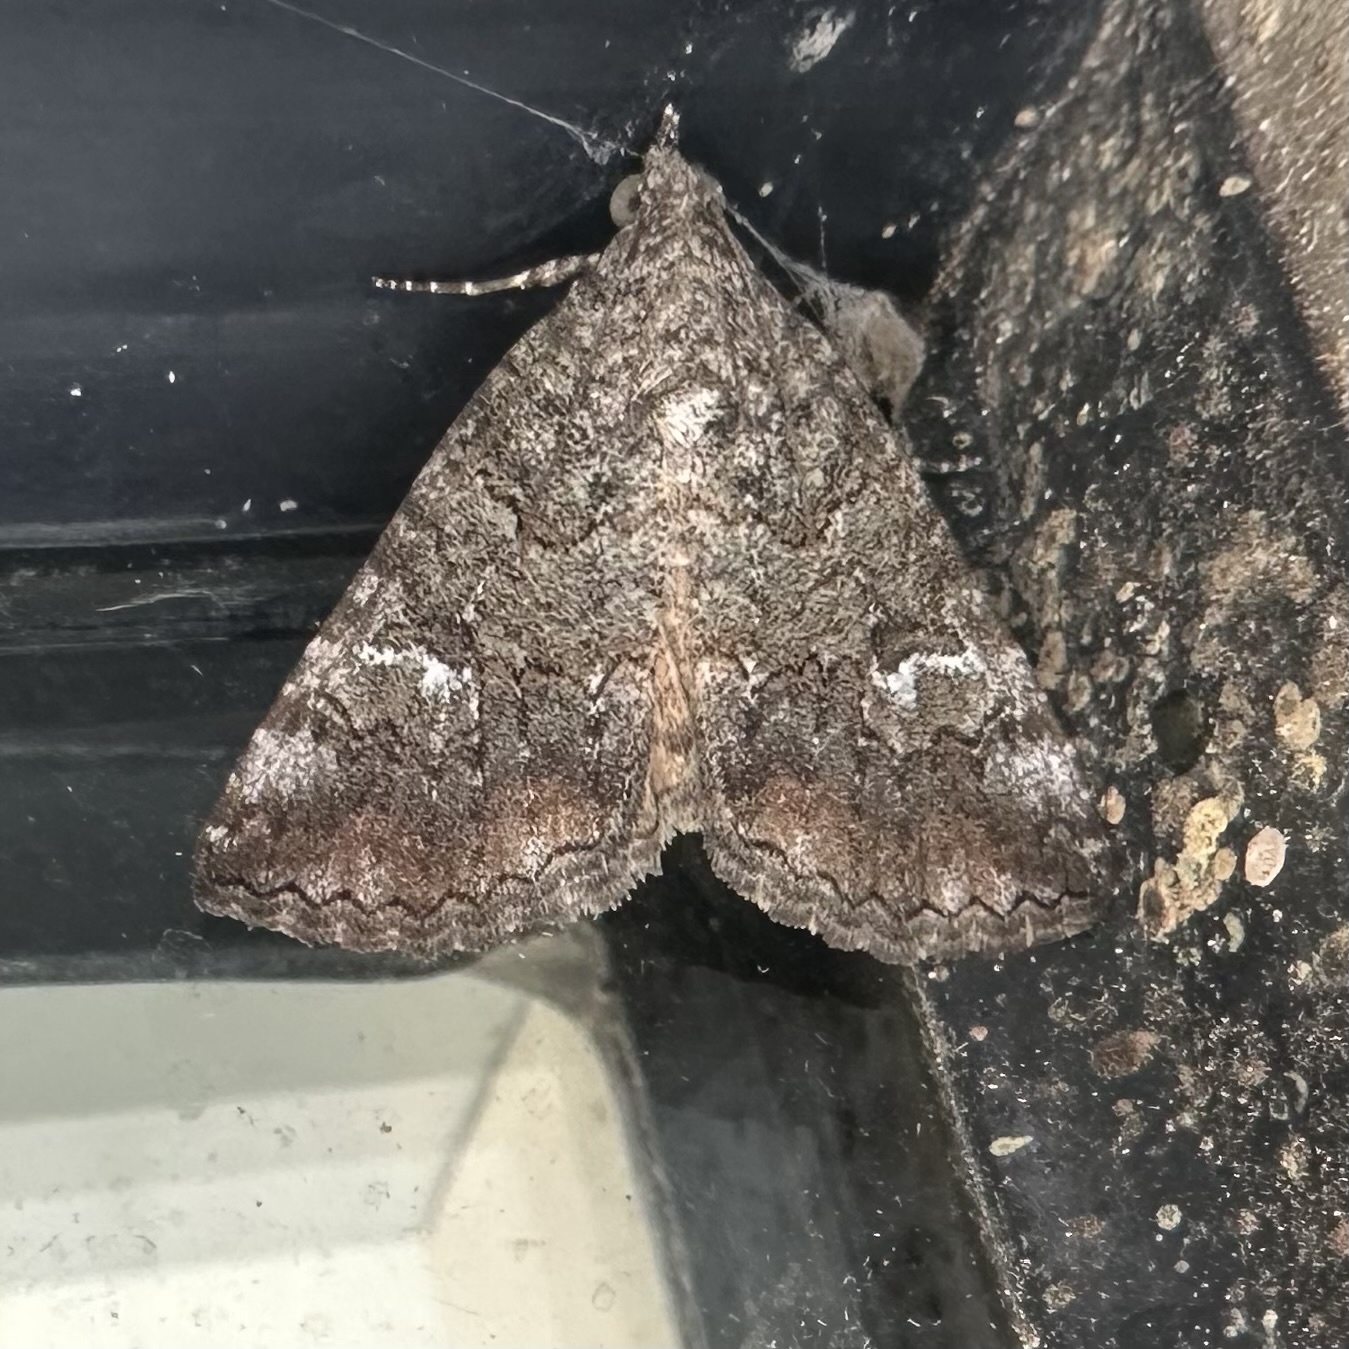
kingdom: Animalia
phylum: Arthropoda
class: Insecta
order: Lepidoptera
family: Erebidae
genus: Eubolina
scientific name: Eubolina impartialis
